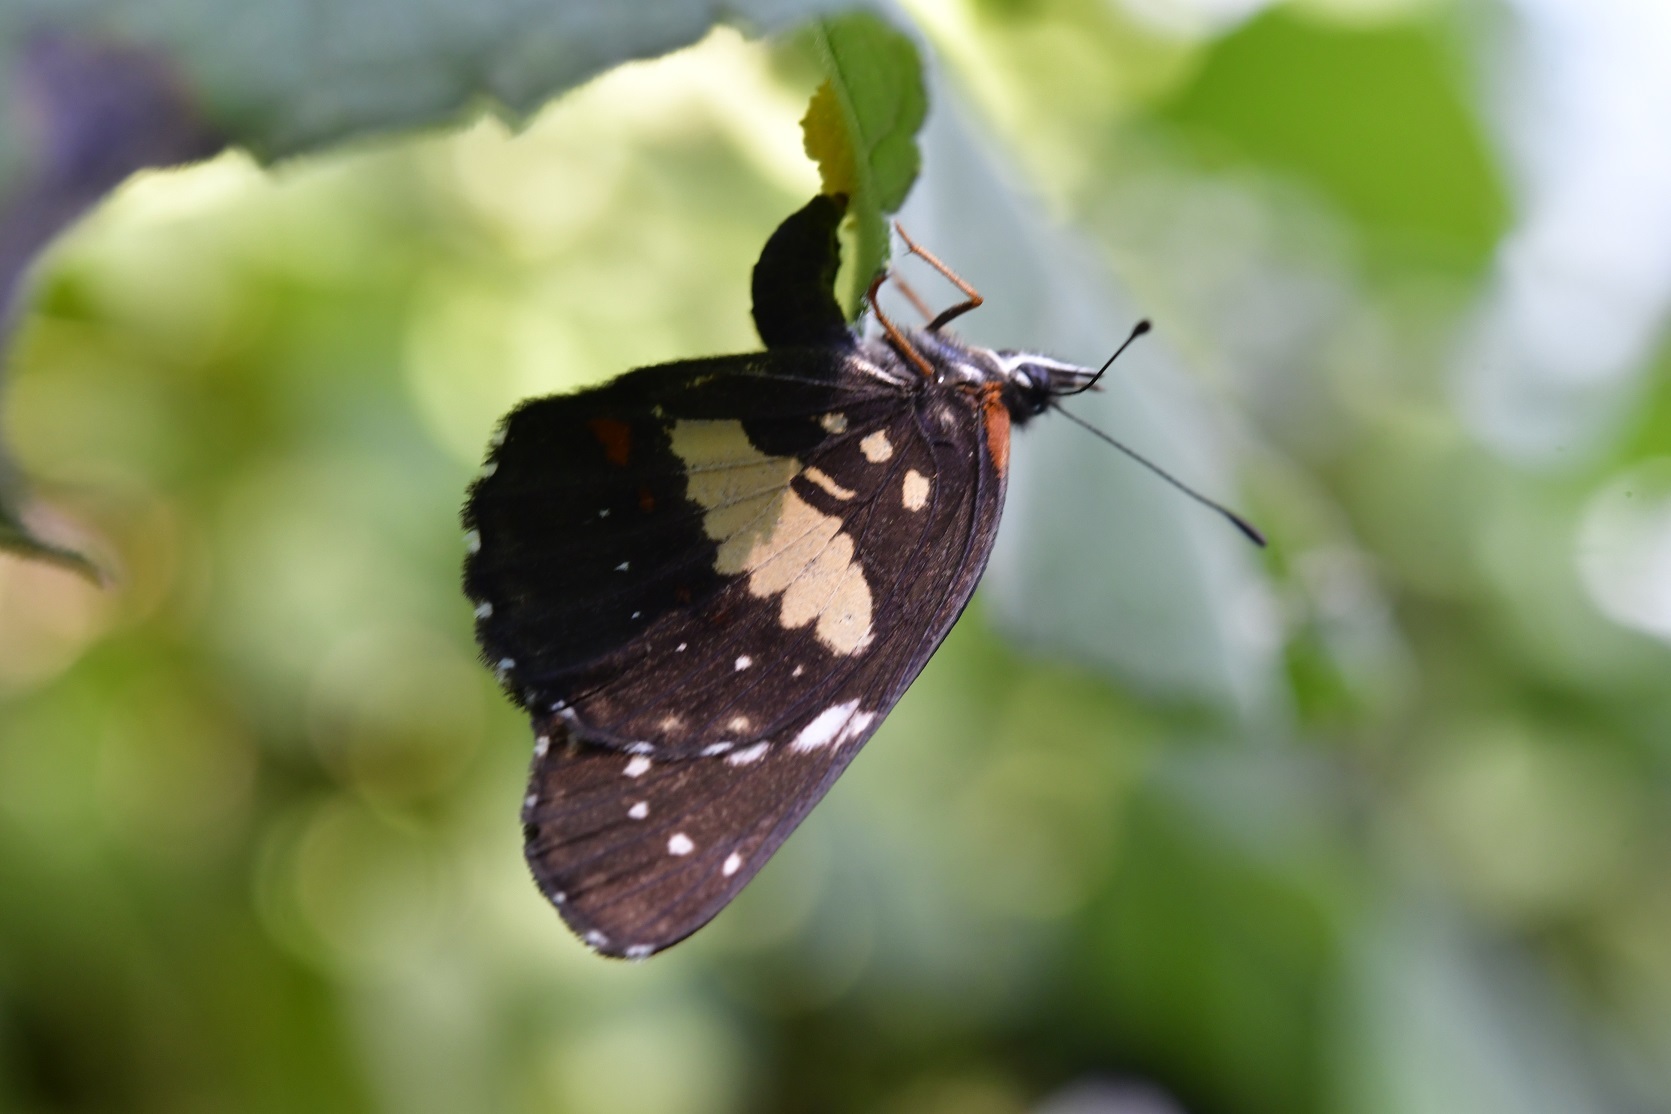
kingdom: Animalia
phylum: Arthropoda
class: Insecta
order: Lepidoptera
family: Nymphalidae
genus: Chlosyne
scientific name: Chlosyne lacinia
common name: Bordered patch
